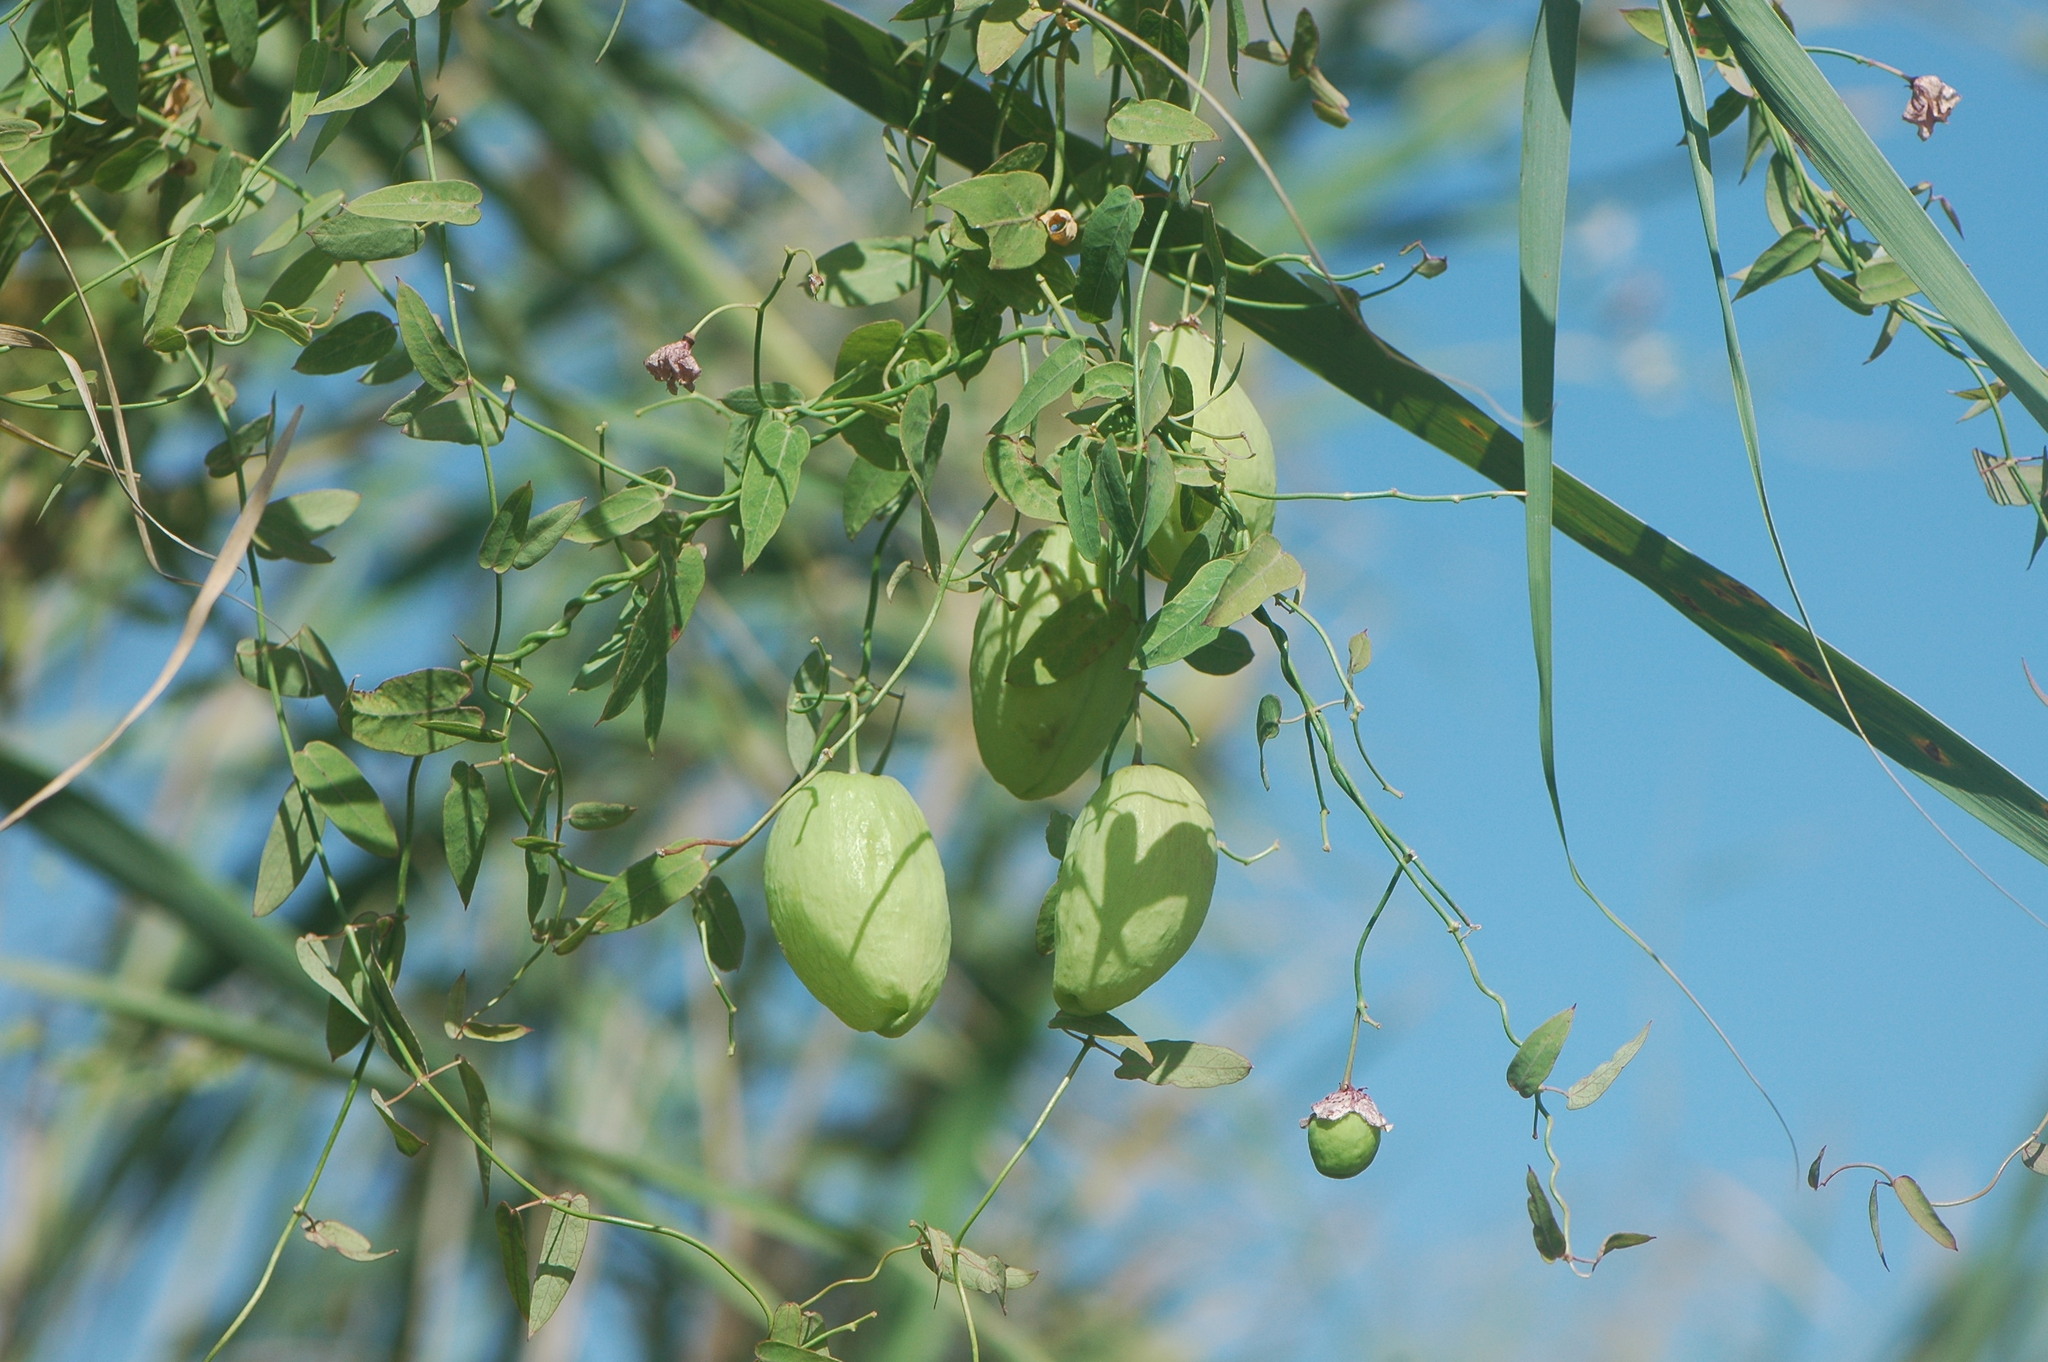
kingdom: Plantae
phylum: Tracheophyta
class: Magnoliopsida
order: Gentianales
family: Apocynaceae
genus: Oxystelma
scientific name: Oxystelma bornouense
